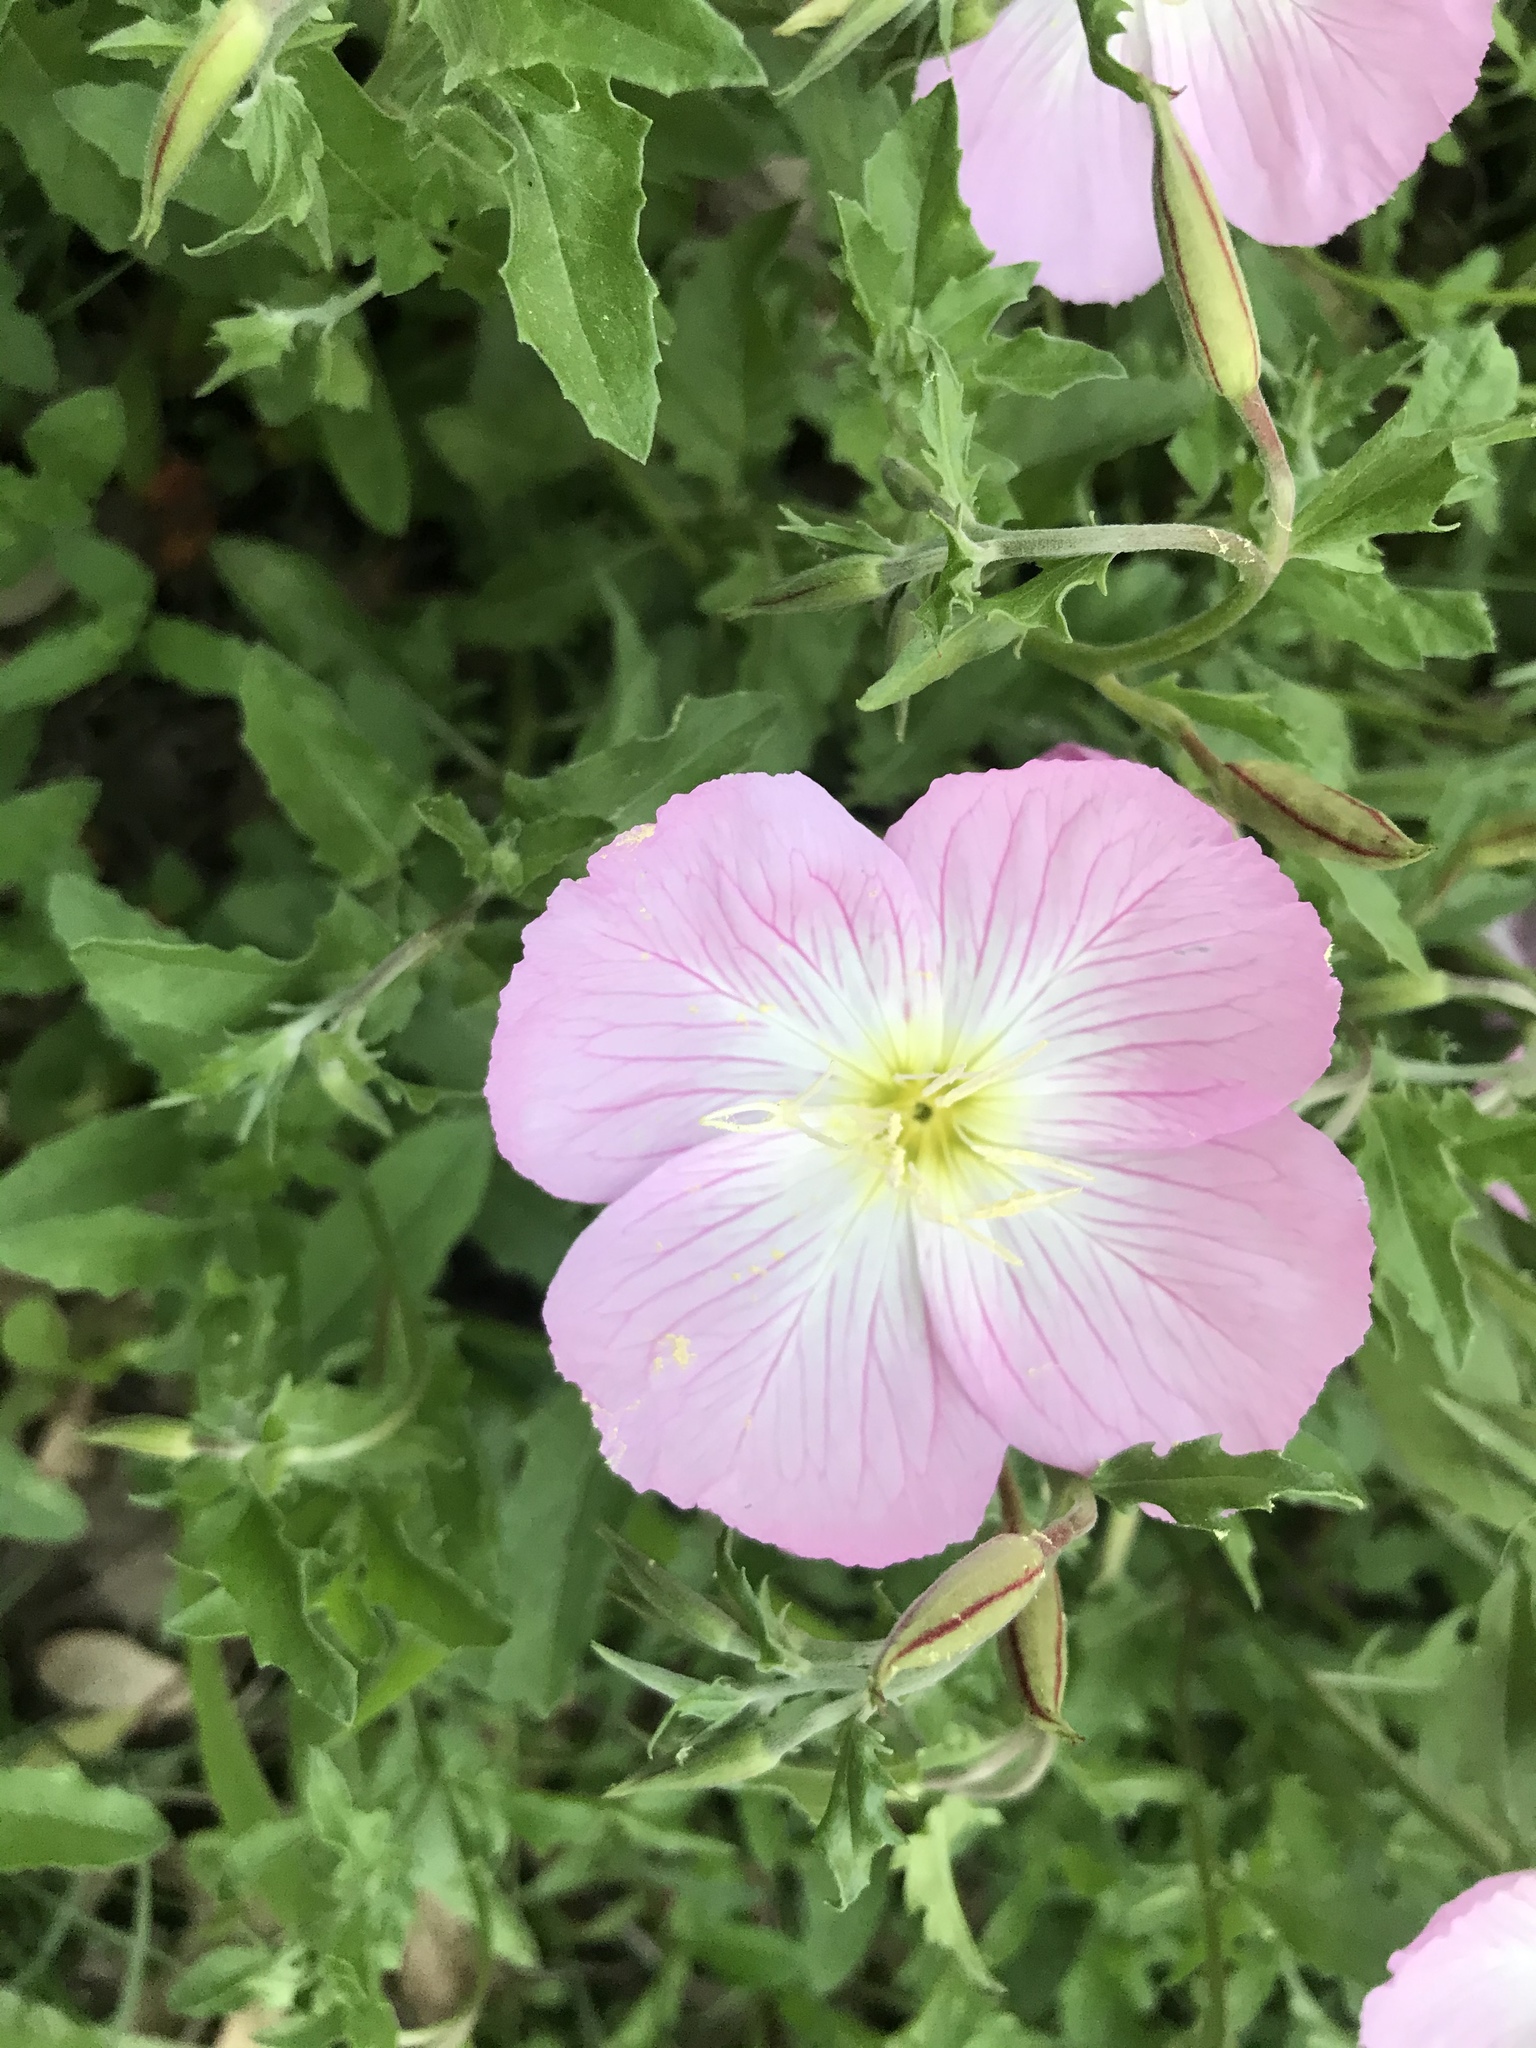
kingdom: Plantae
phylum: Tracheophyta
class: Magnoliopsida
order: Myrtales
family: Onagraceae
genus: Oenothera
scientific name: Oenothera speciosa
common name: White evening-primrose
